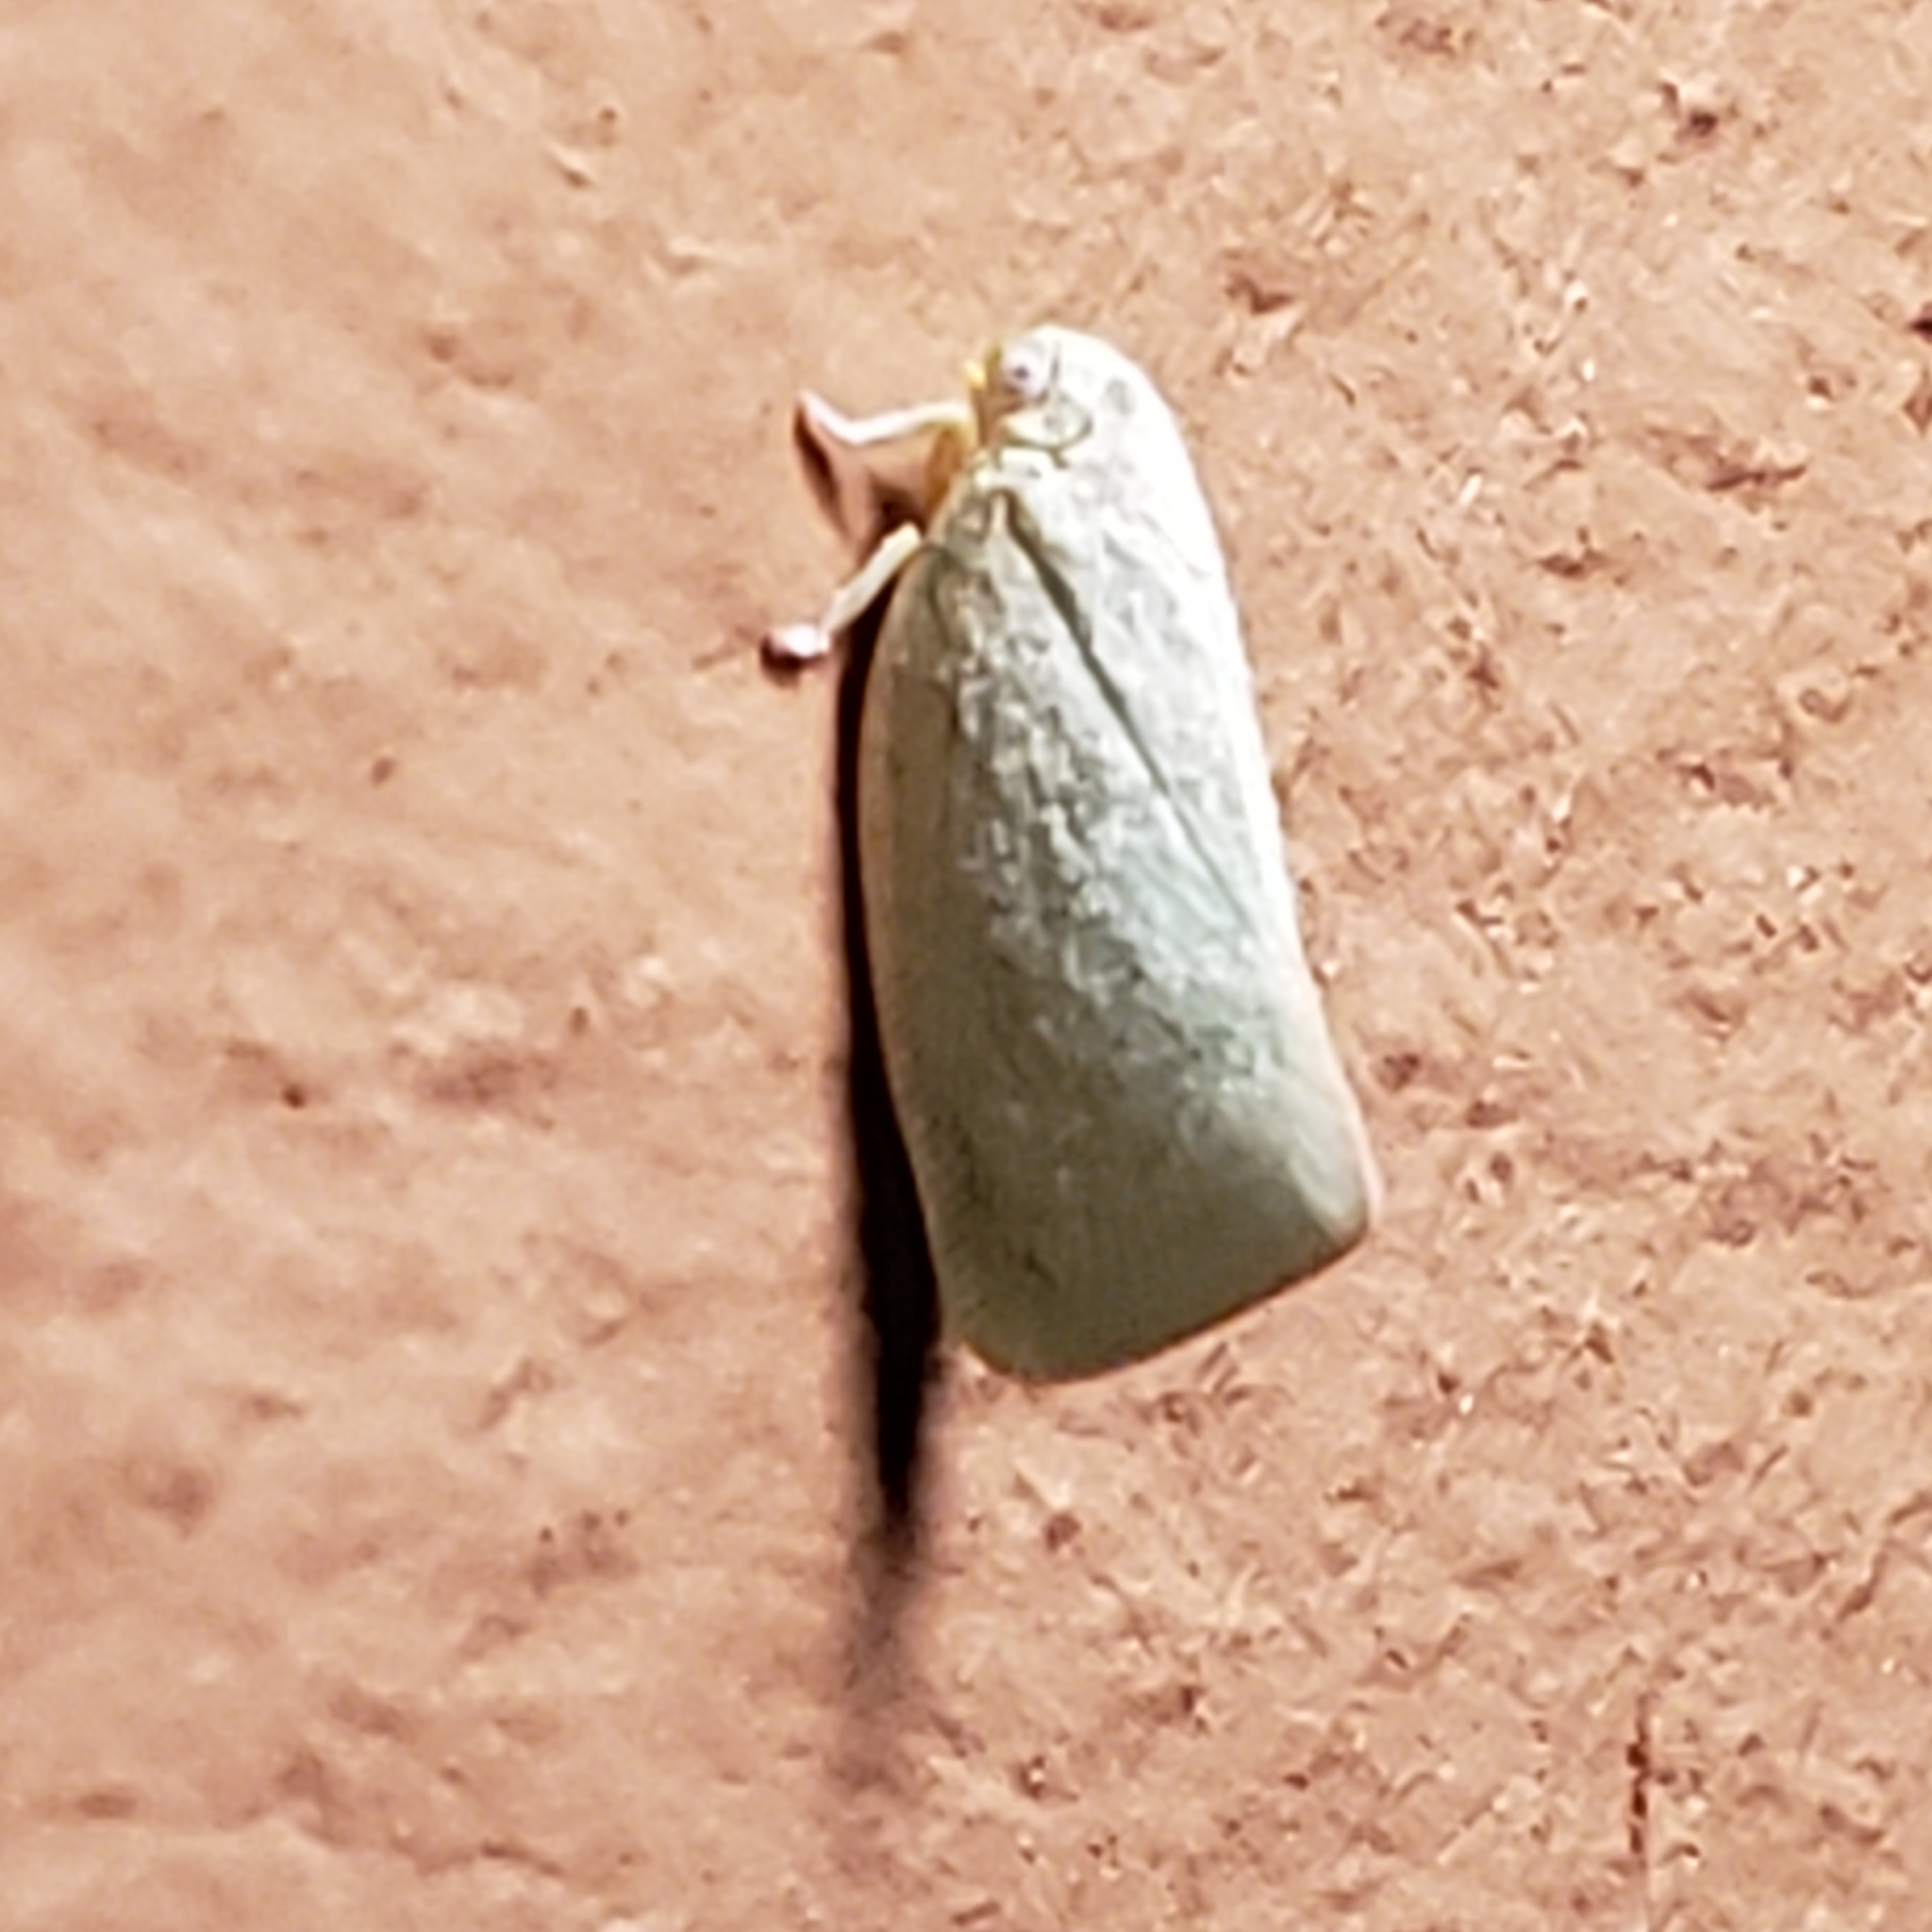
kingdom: Animalia
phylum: Arthropoda
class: Insecta
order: Hemiptera
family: Flatidae
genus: Flatormenis
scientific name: Flatormenis proxima
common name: Northern flatid planthopper
